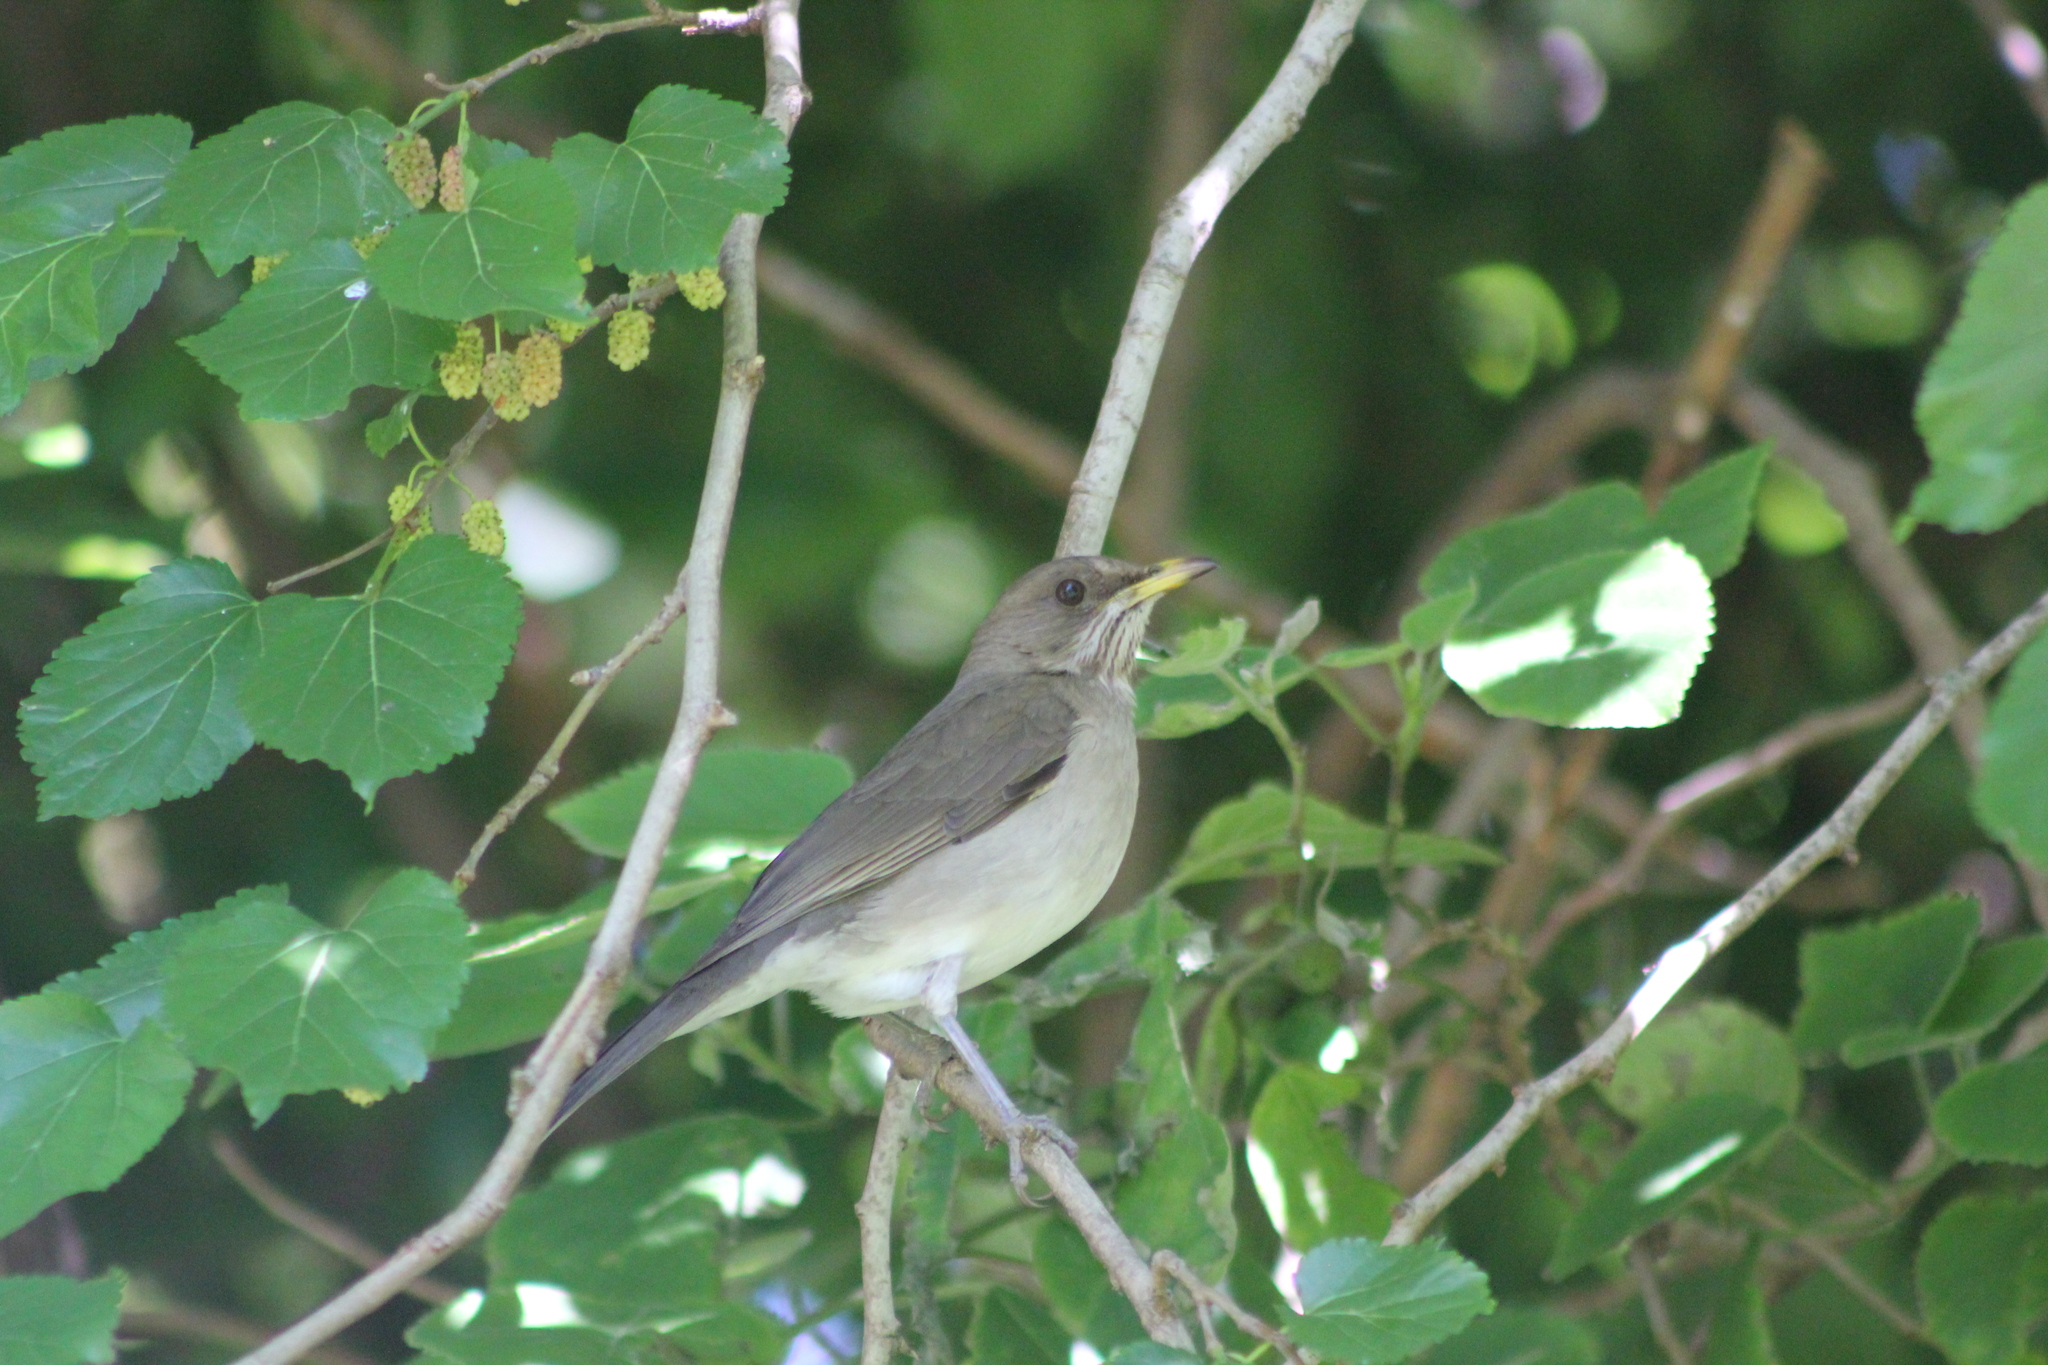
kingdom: Animalia
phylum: Chordata
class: Aves
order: Passeriformes
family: Turdidae
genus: Turdus
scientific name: Turdus amaurochalinus
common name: Creamy-bellied thrush
